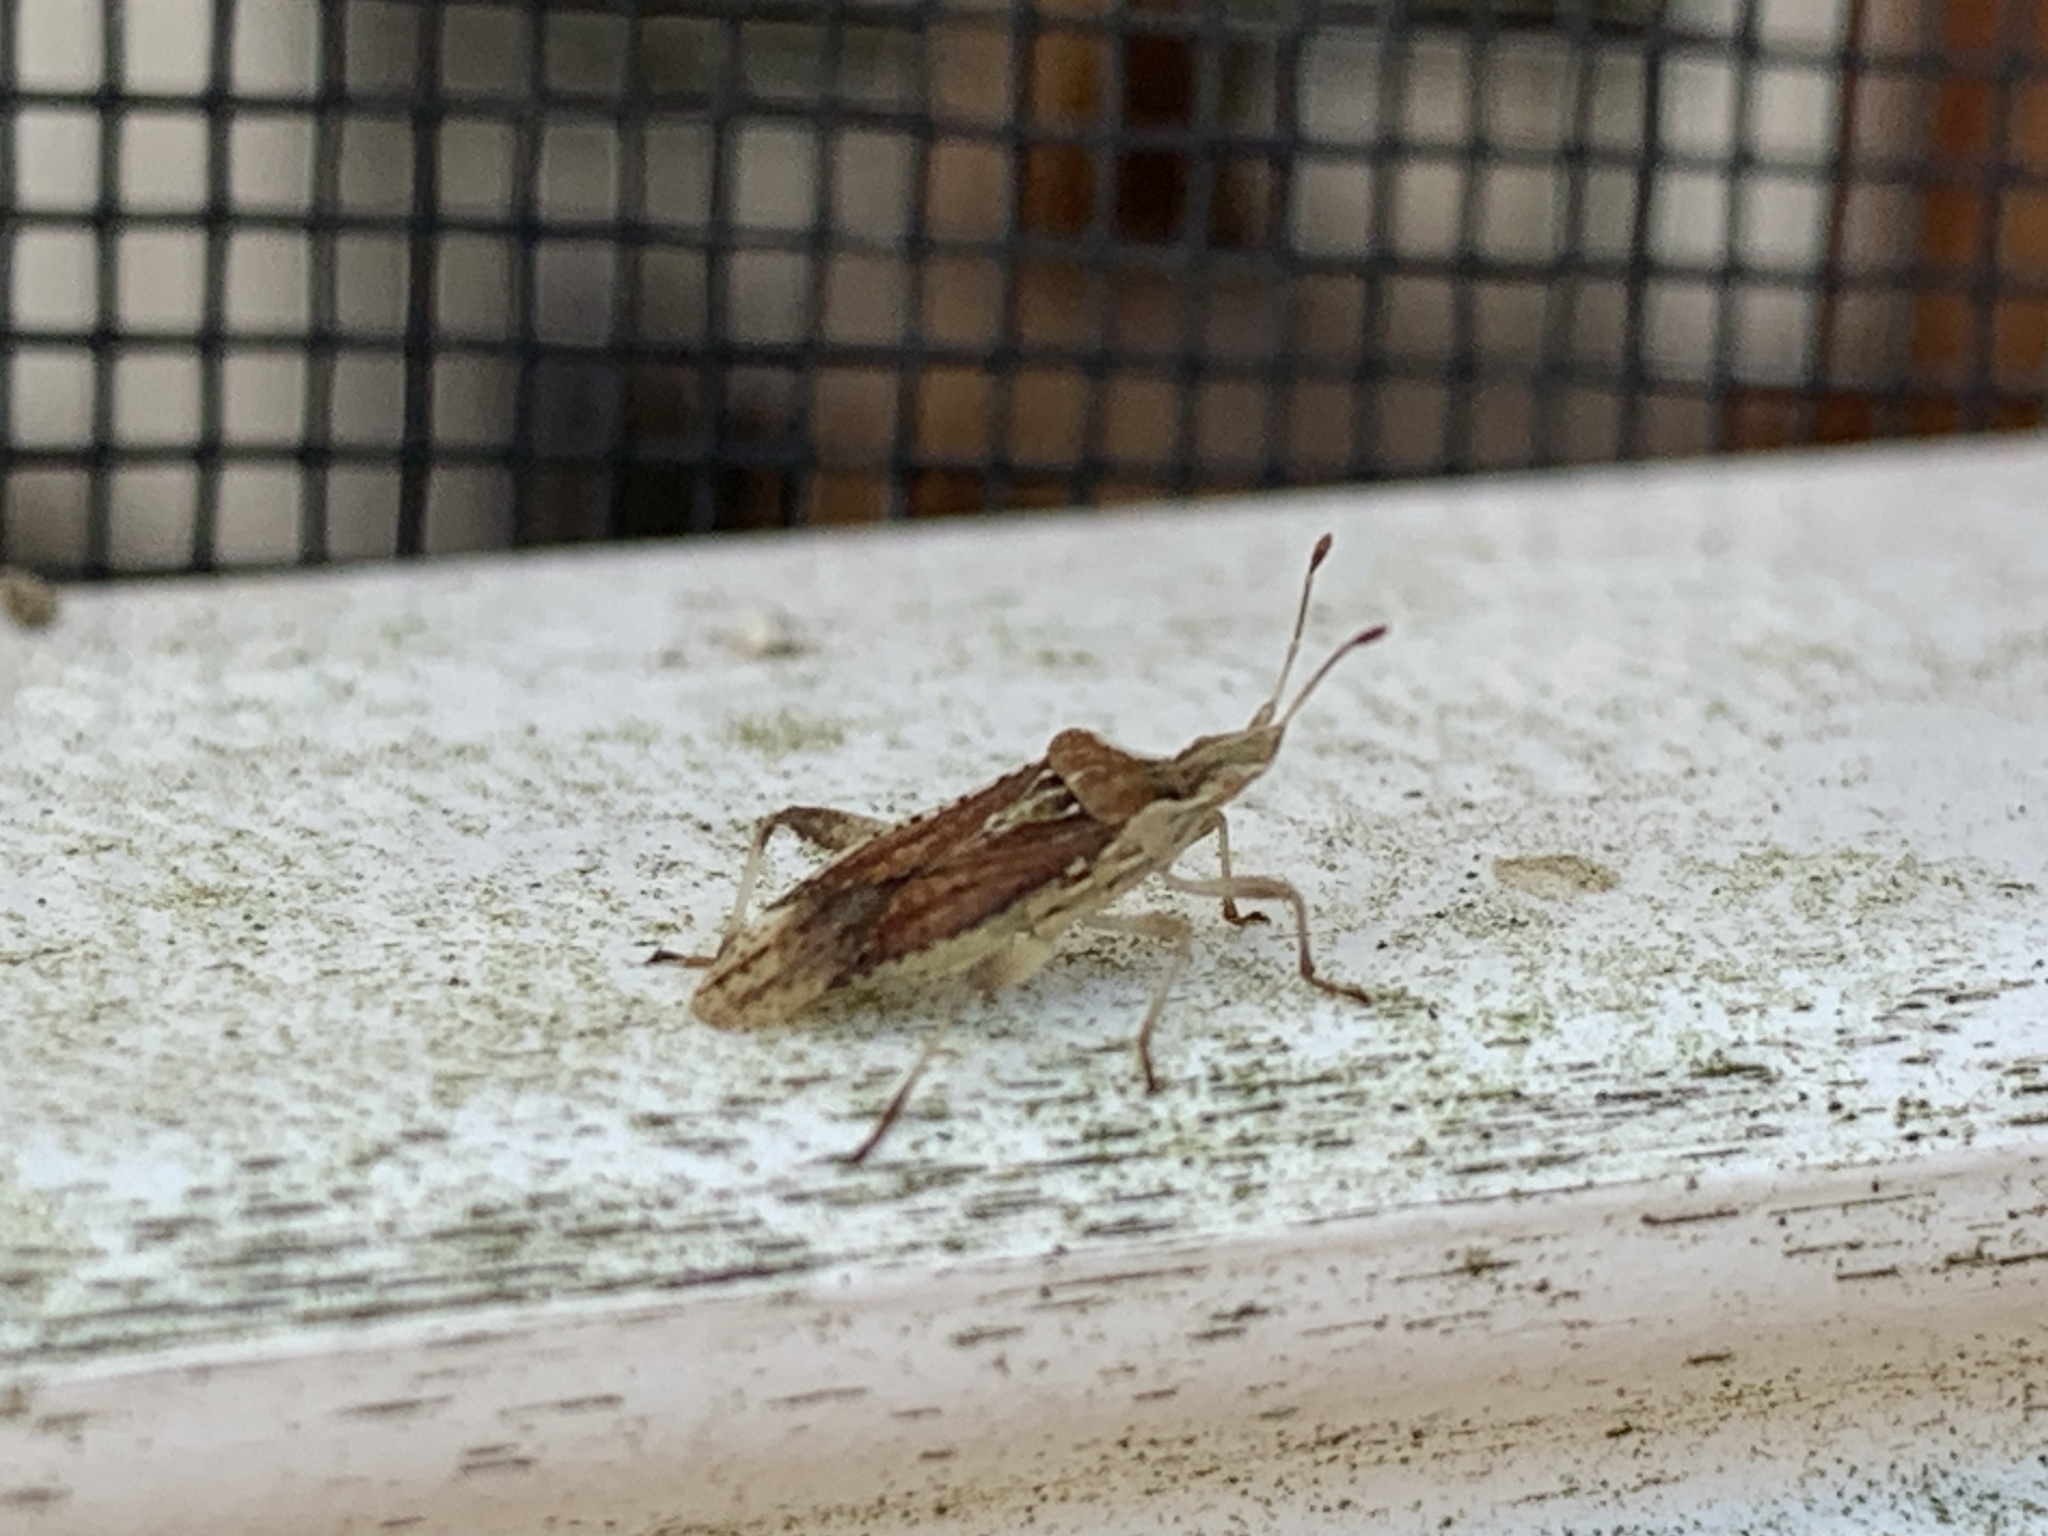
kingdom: Animalia
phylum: Arthropoda
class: Insecta
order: Hemiptera
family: Rhopalidae
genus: Harmostes
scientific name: Harmostes fraterculus
